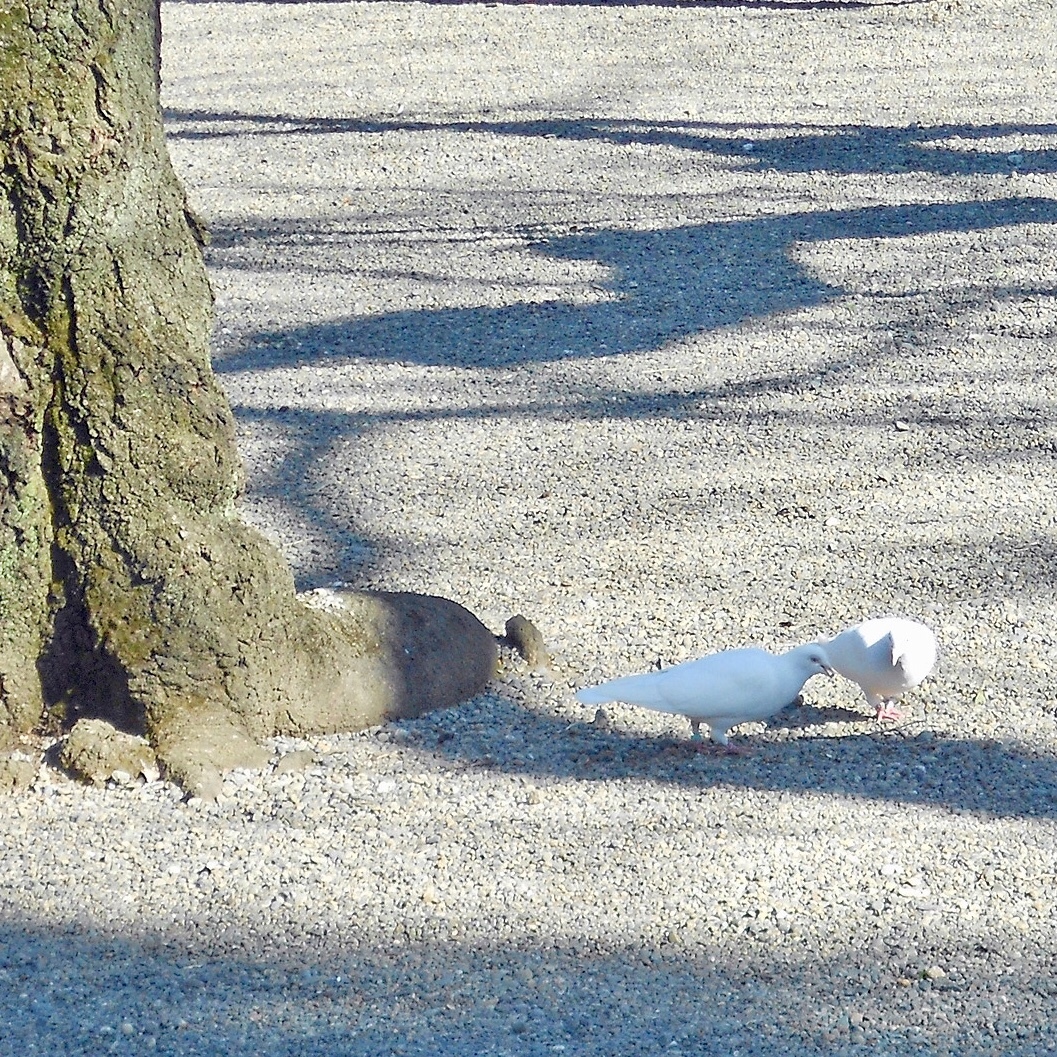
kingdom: Animalia
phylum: Chordata
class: Aves
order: Columbiformes
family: Columbidae
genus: Columba
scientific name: Columba livia
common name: Rock pigeon
